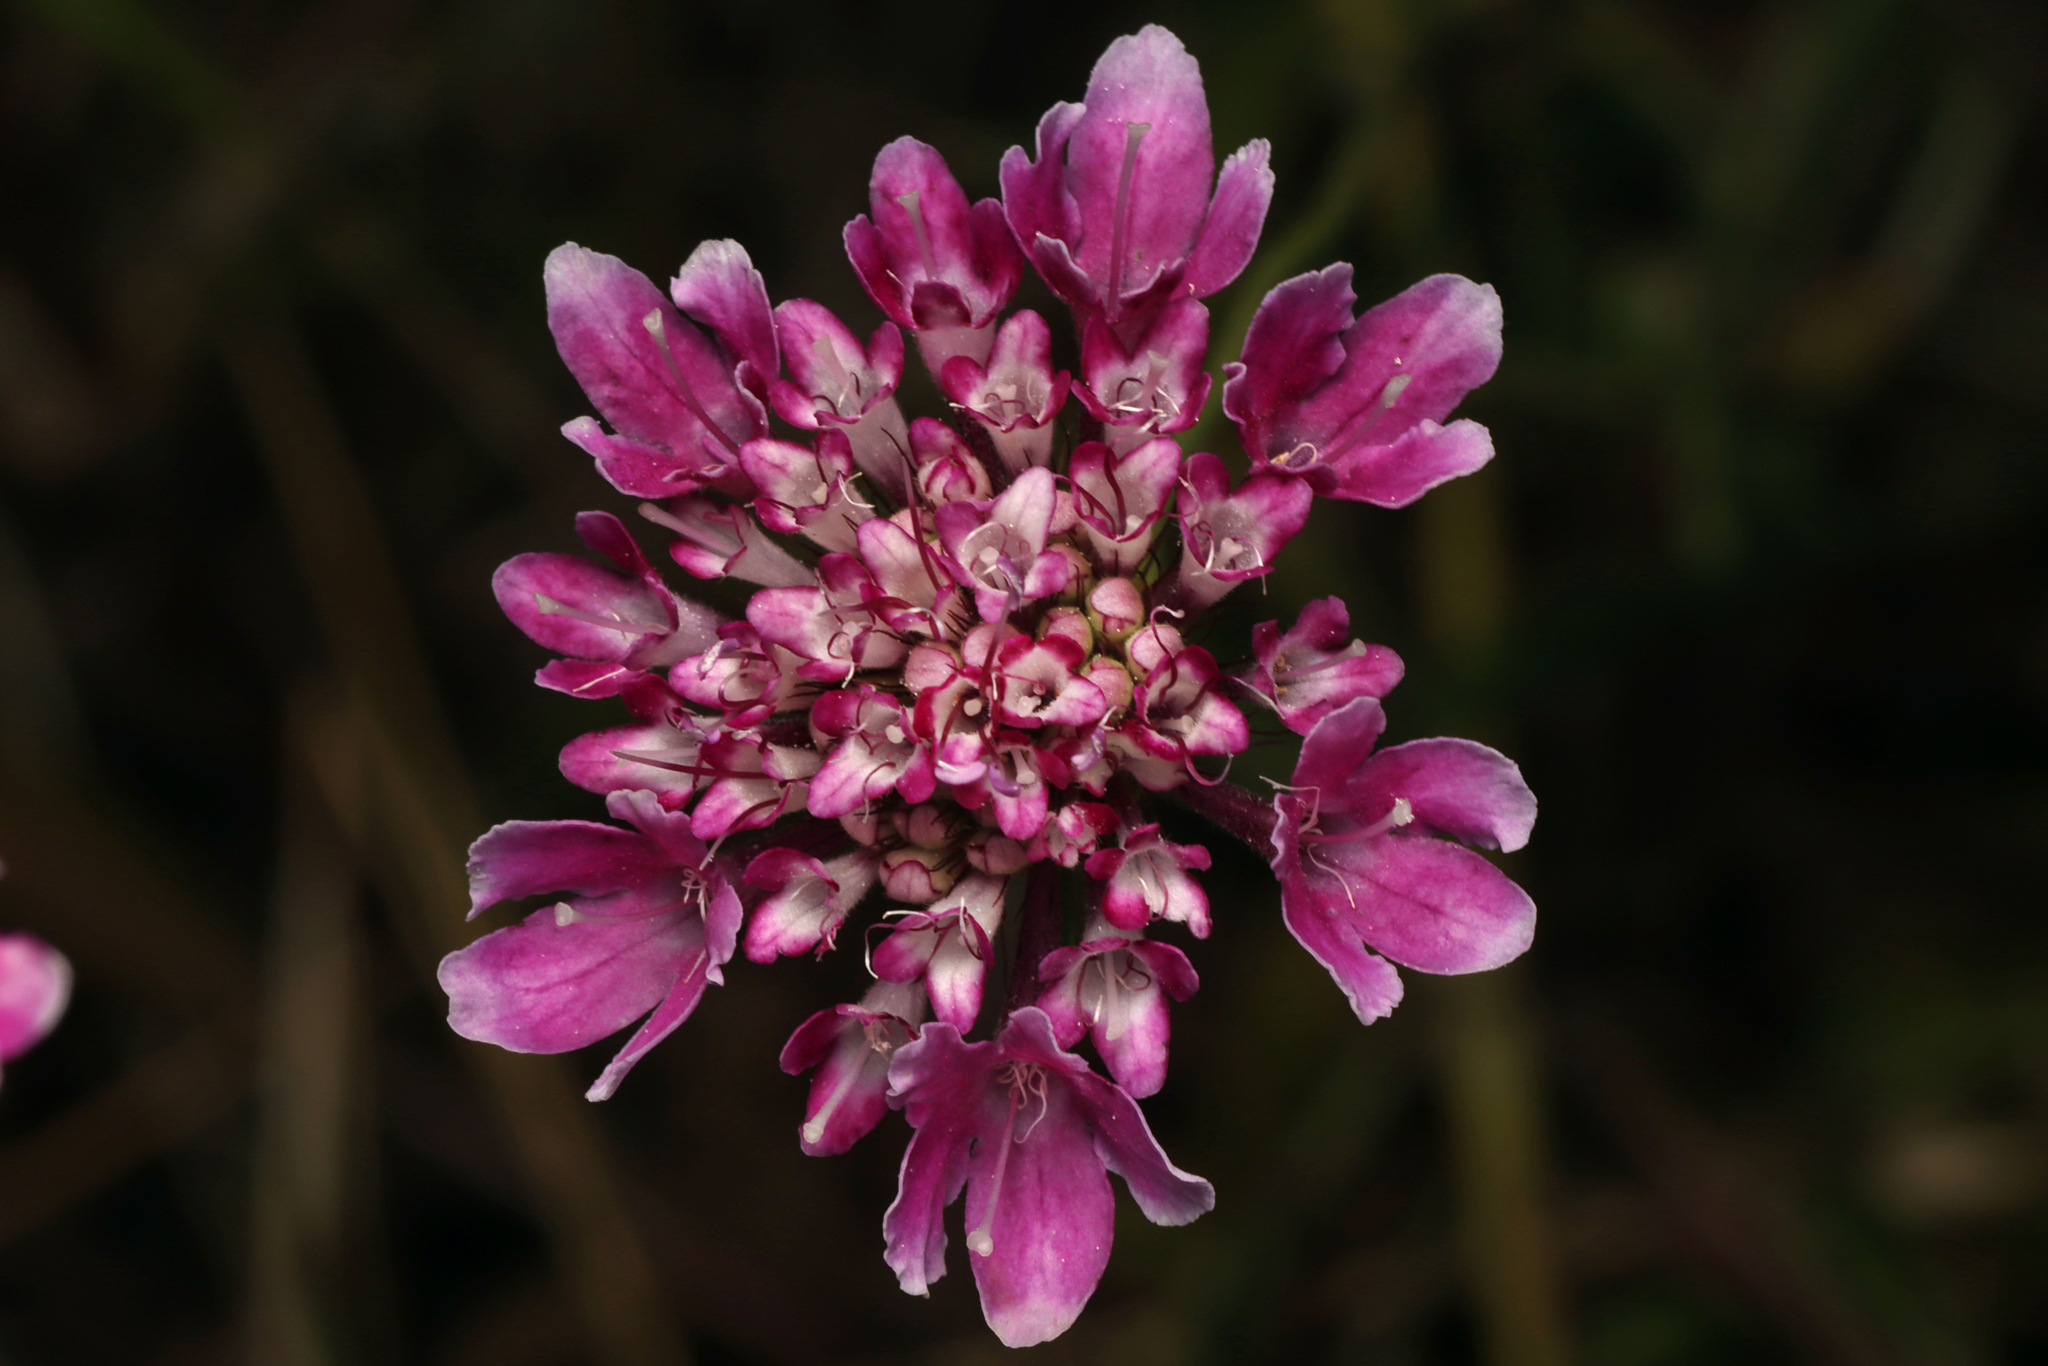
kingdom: Plantae
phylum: Tracheophyta
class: Magnoliopsida
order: Dipsacales
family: Caprifoliaceae
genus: Sixalix
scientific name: Sixalix atropurpurea
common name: Sweet scabious
